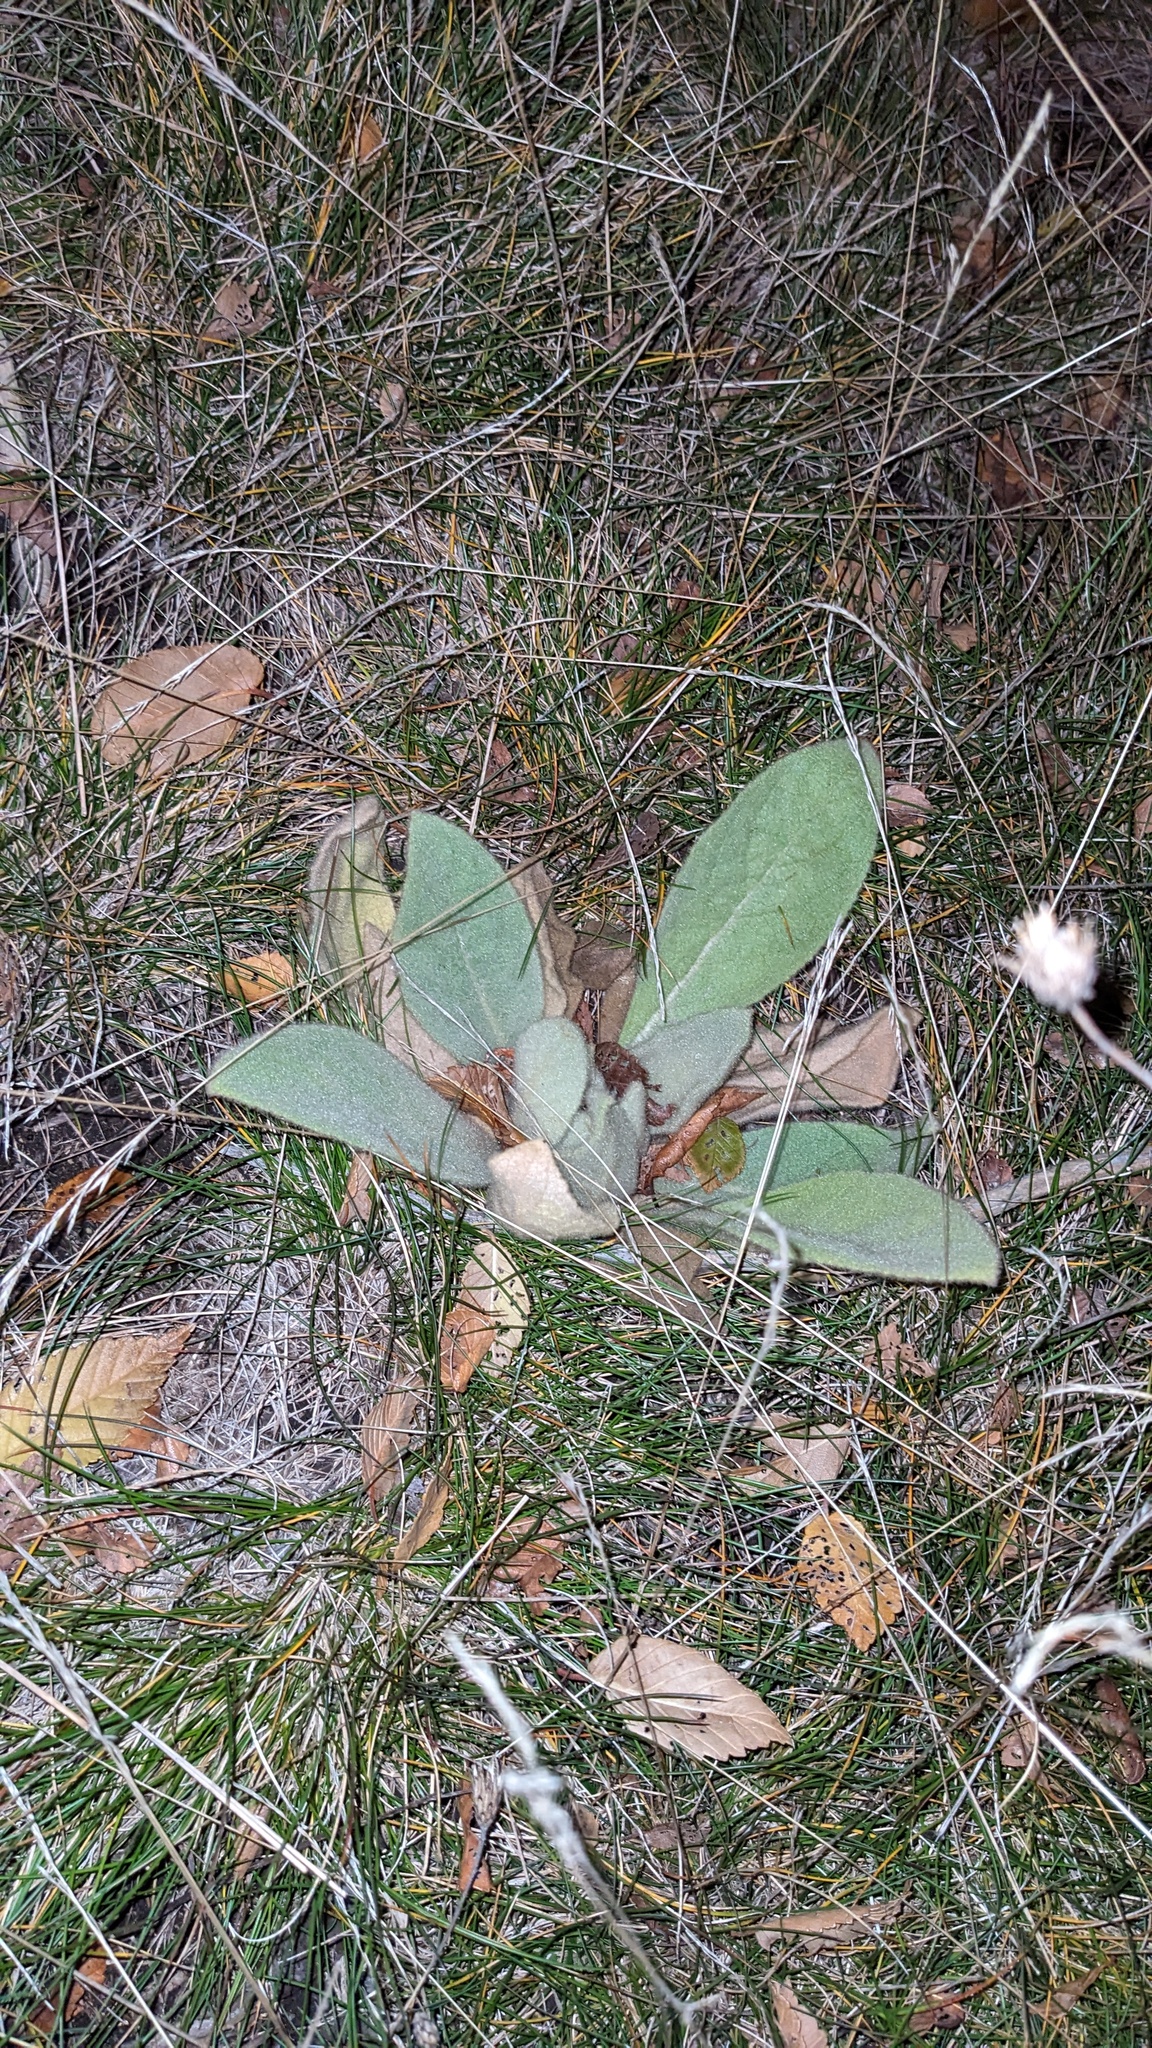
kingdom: Plantae
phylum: Tracheophyta
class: Magnoliopsida
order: Lamiales
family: Scrophulariaceae
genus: Verbascum
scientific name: Verbascum thapsus
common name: Common mullein
